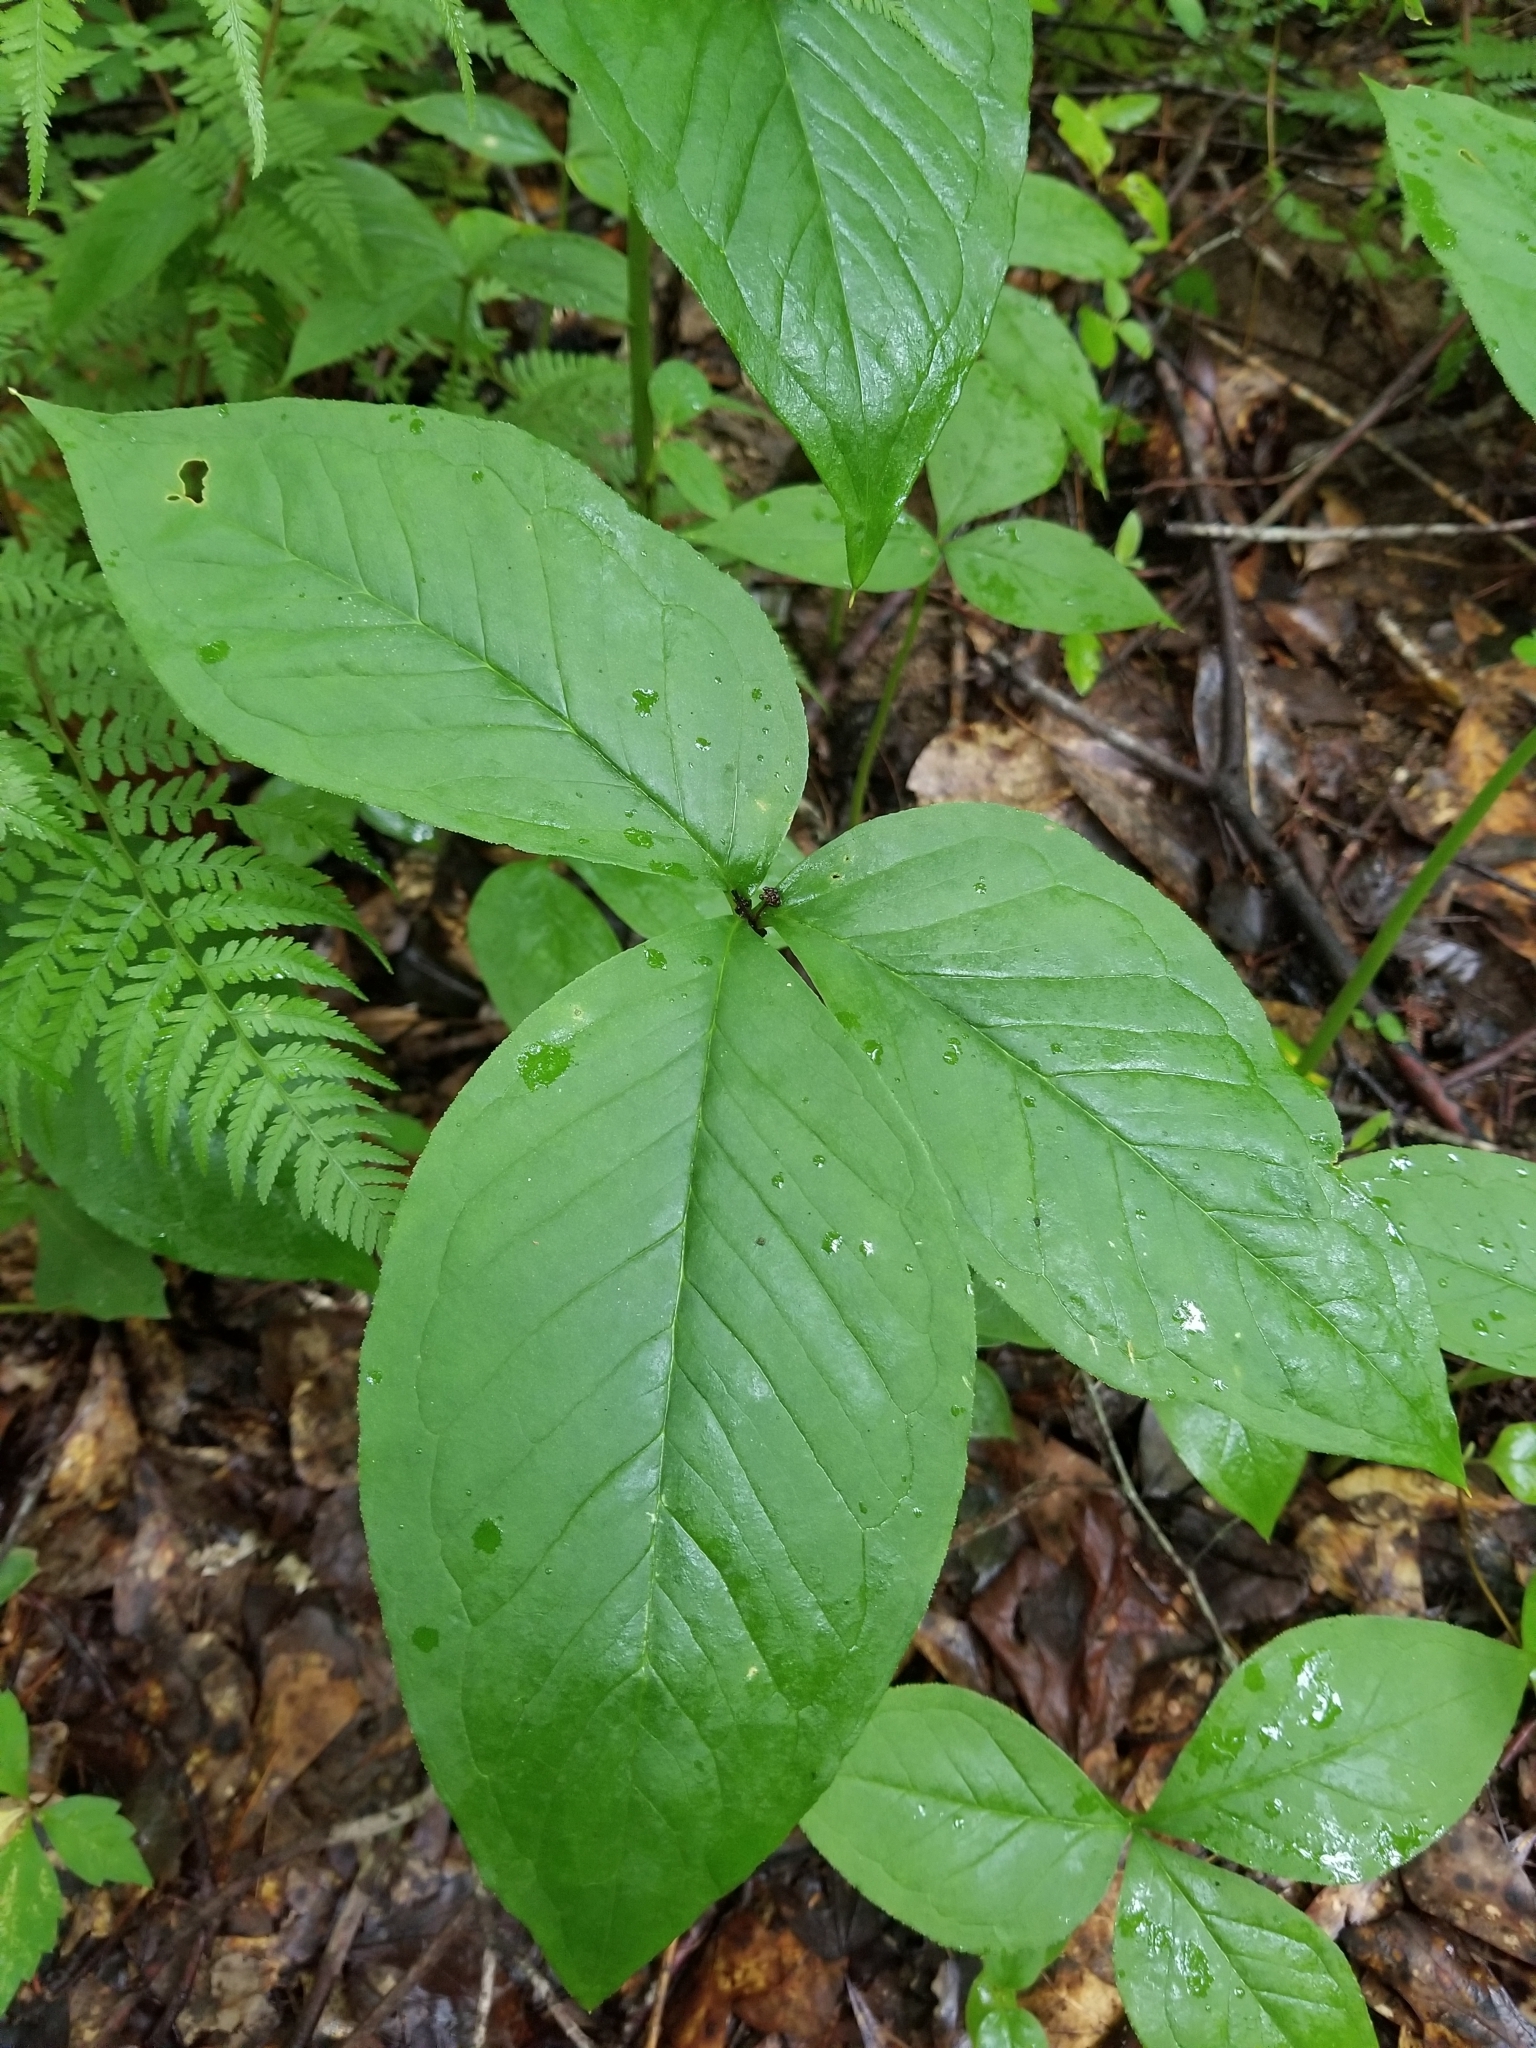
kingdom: Plantae
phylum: Tracheophyta
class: Liliopsida
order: Alismatales
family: Araceae
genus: Arisaema
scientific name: Arisaema triphyllum
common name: Jack-in-the-pulpit
